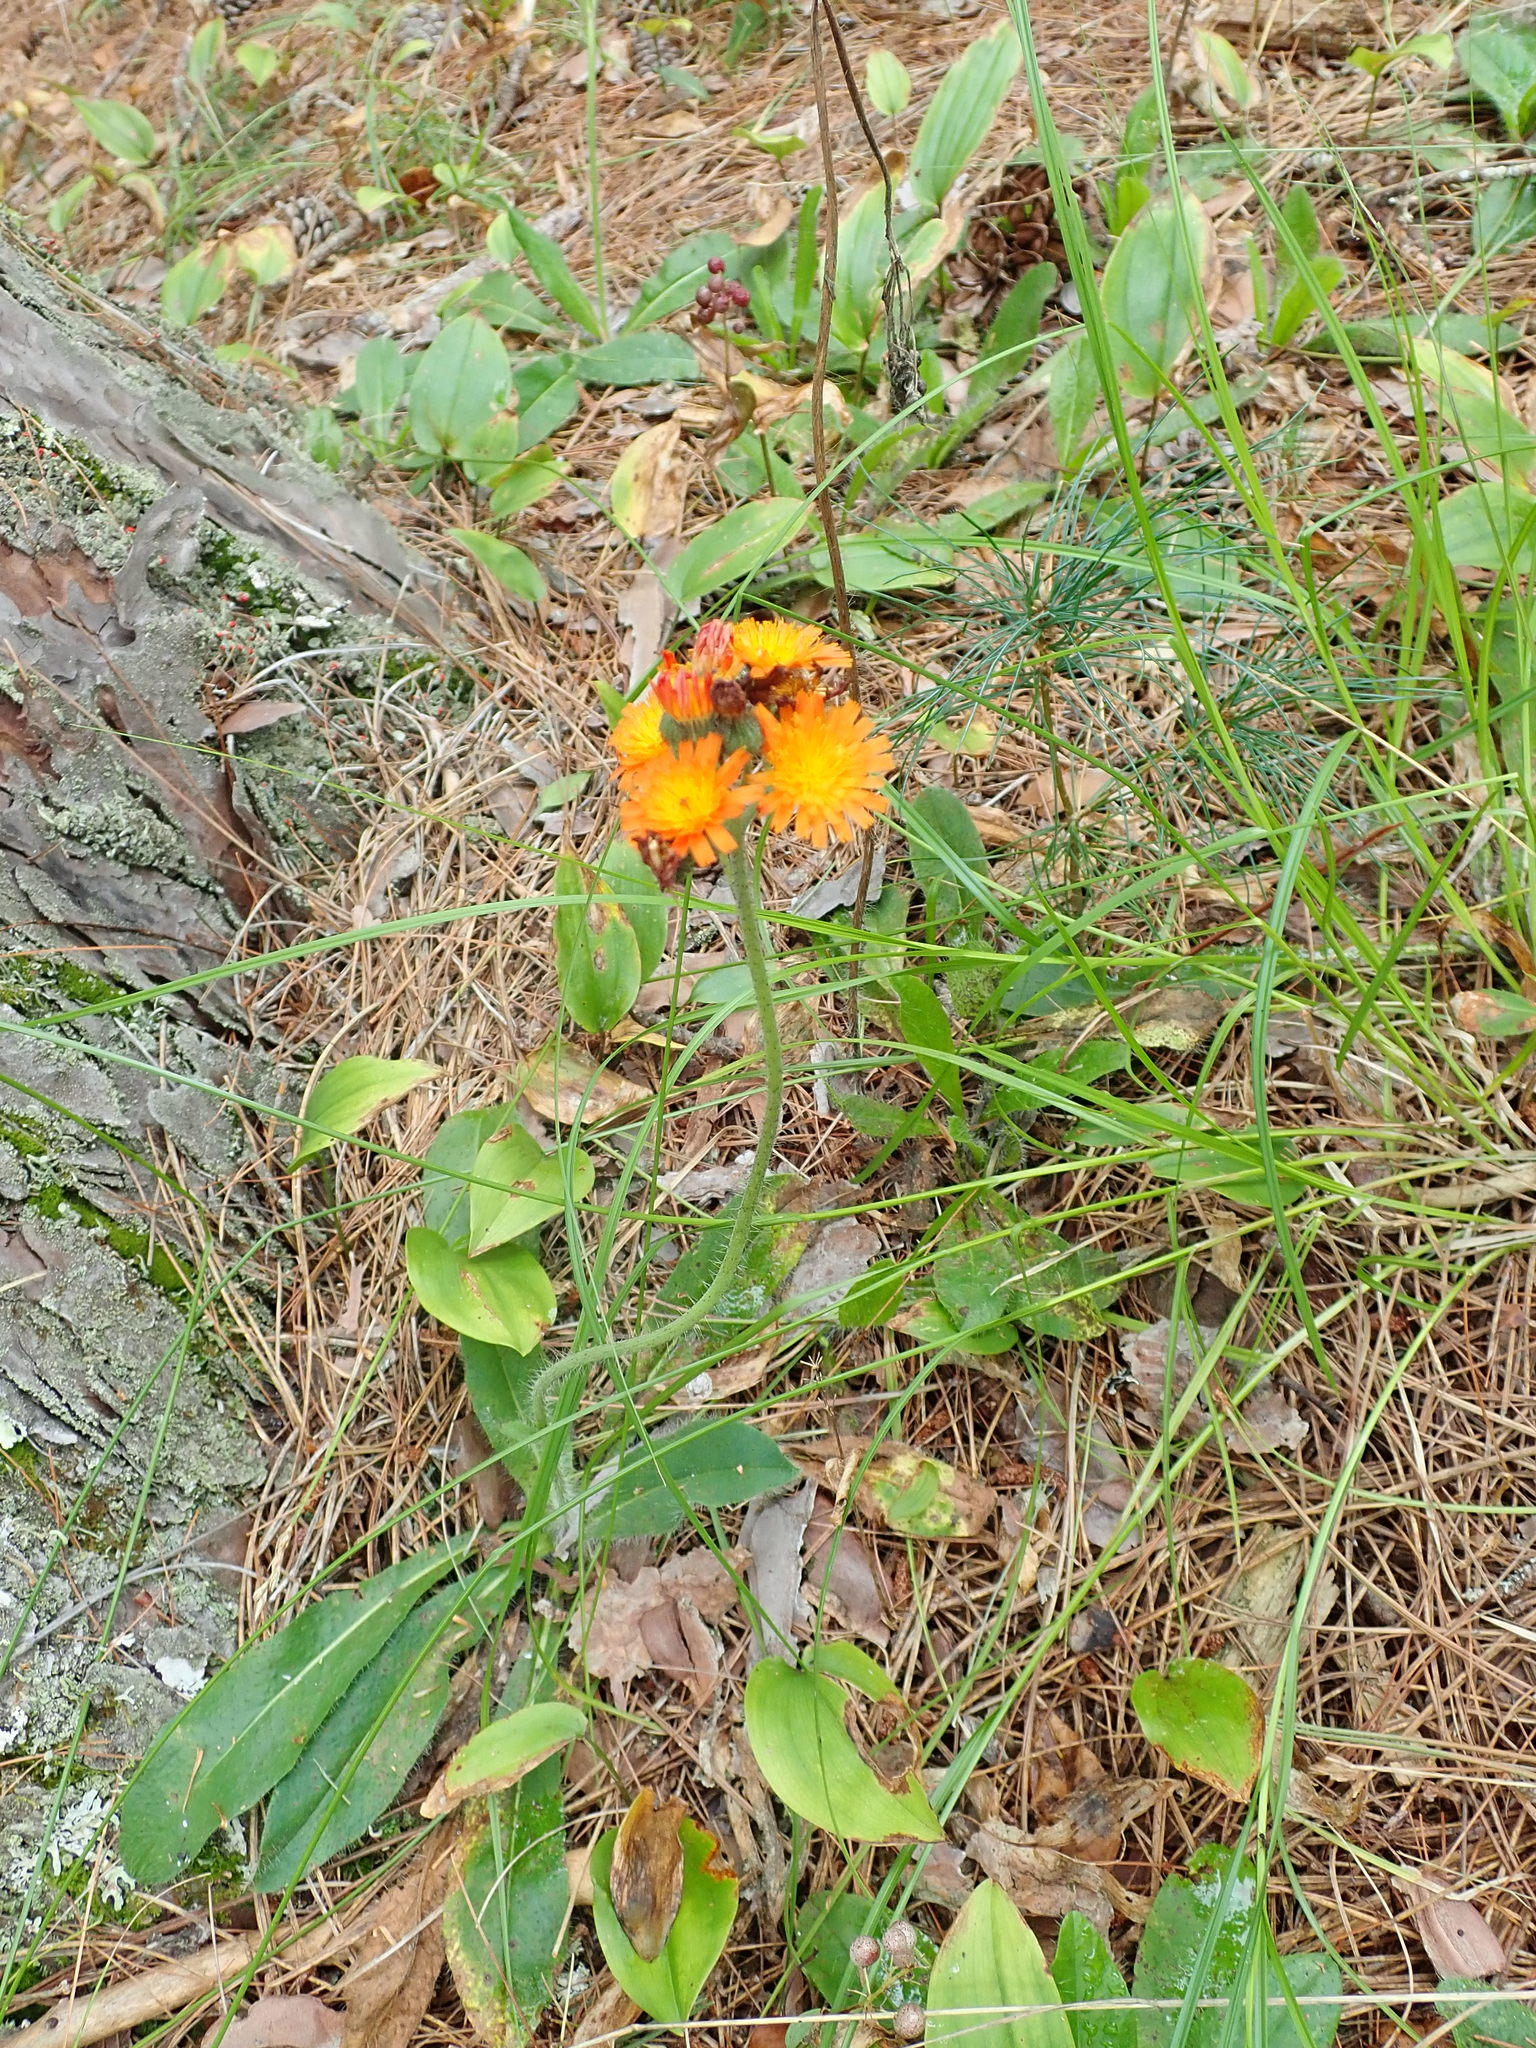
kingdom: Plantae
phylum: Tracheophyta
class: Magnoliopsida
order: Asterales
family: Asteraceae
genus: Pilosella
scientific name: Pilosella aurantiaca
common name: Fox-and-cubs
